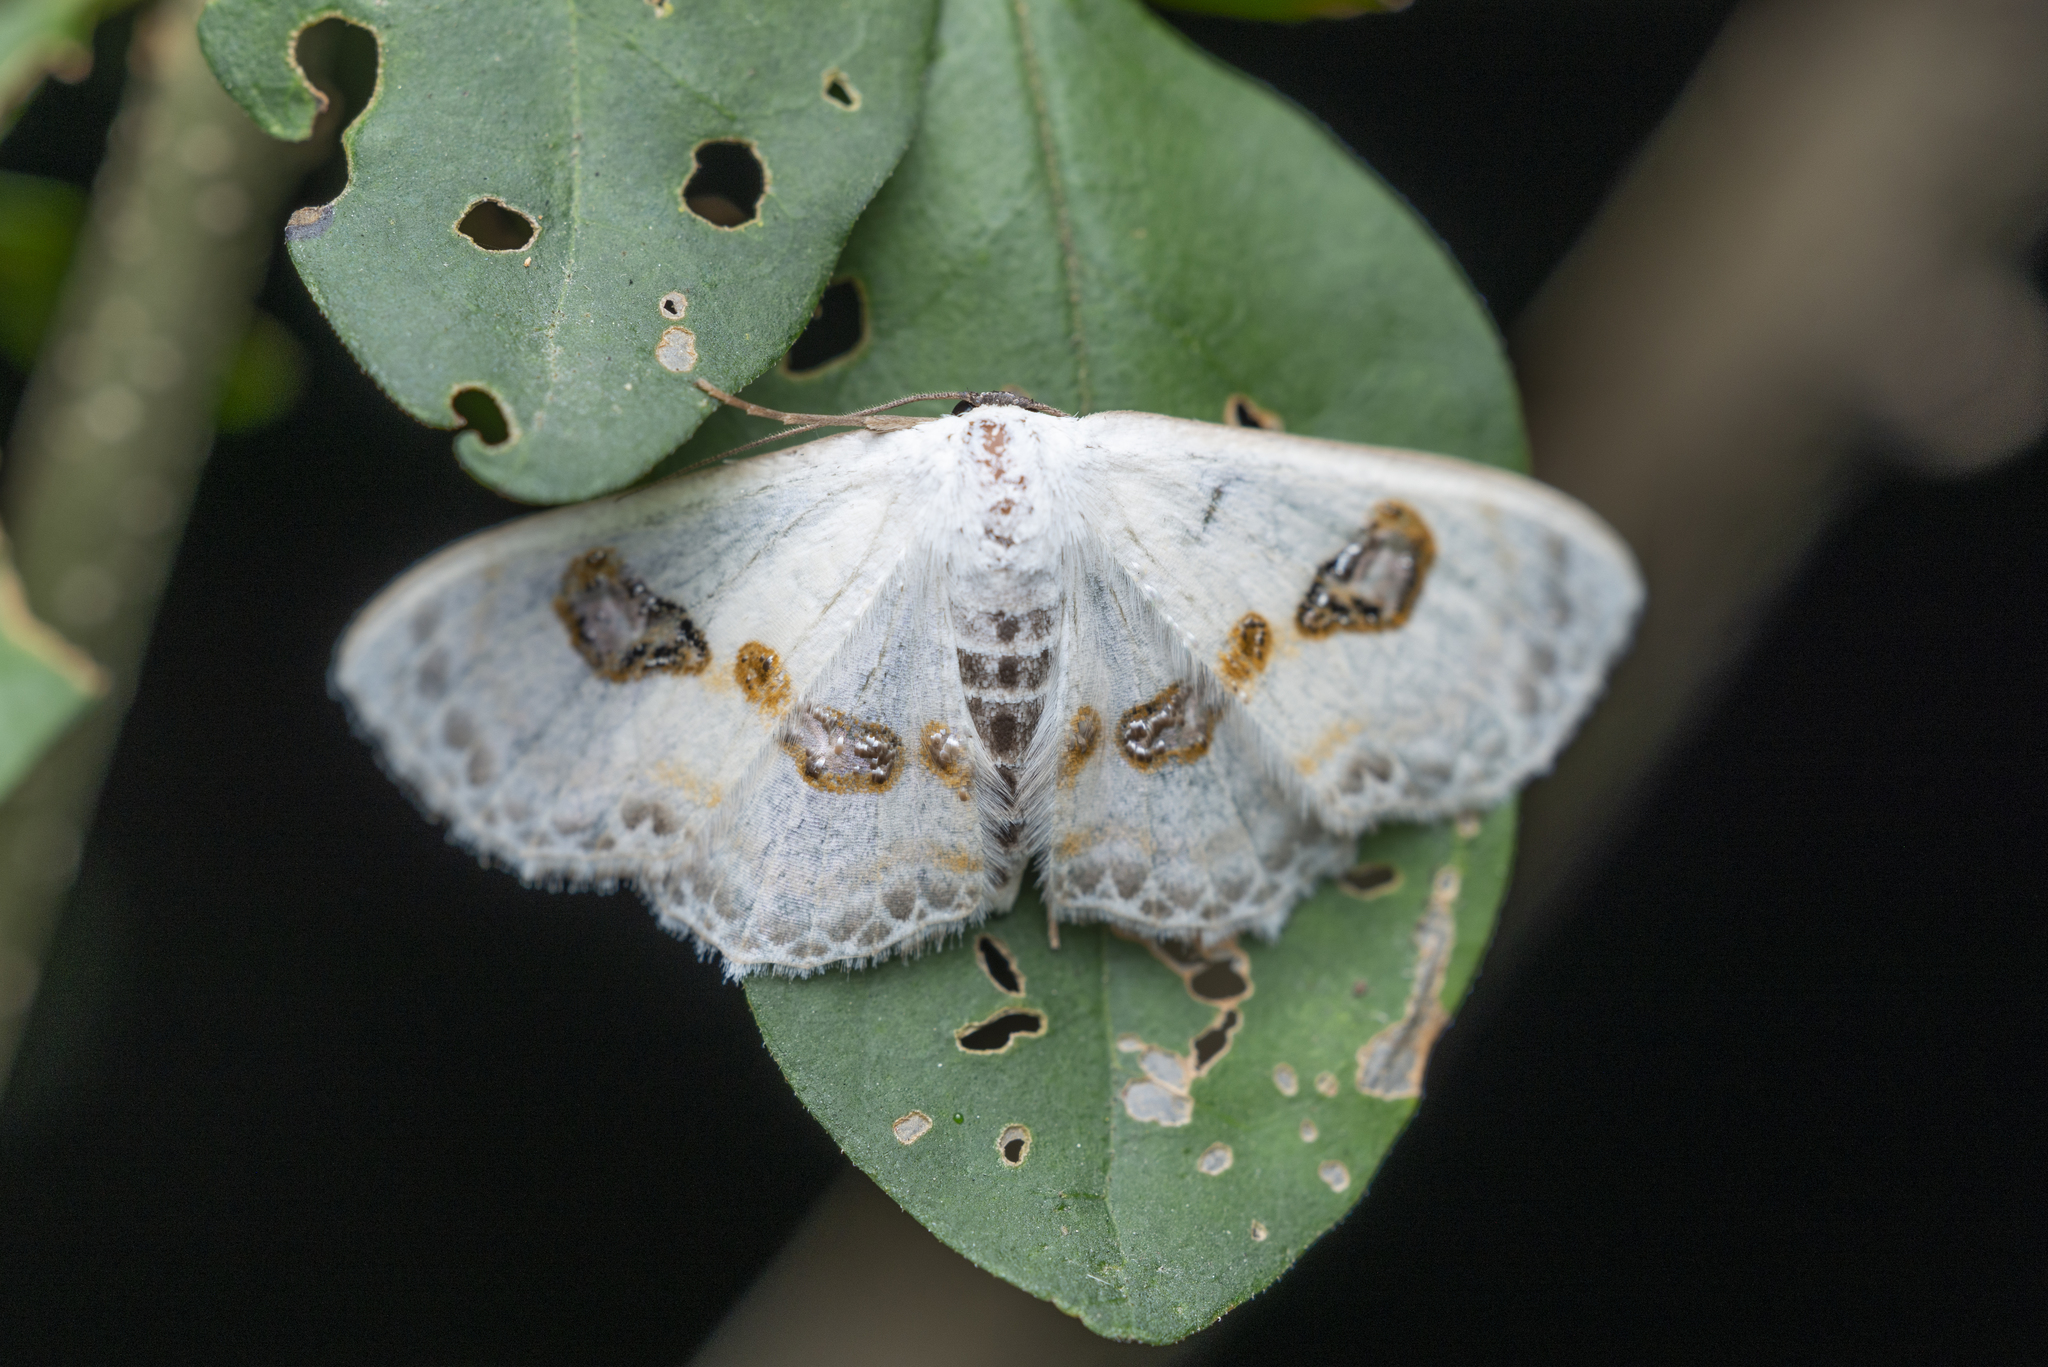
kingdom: Animalia
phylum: Arthropoda
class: Insecta
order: Lepidoptera
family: Geometridae
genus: Problepsis
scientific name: Problepsis vulgaris
